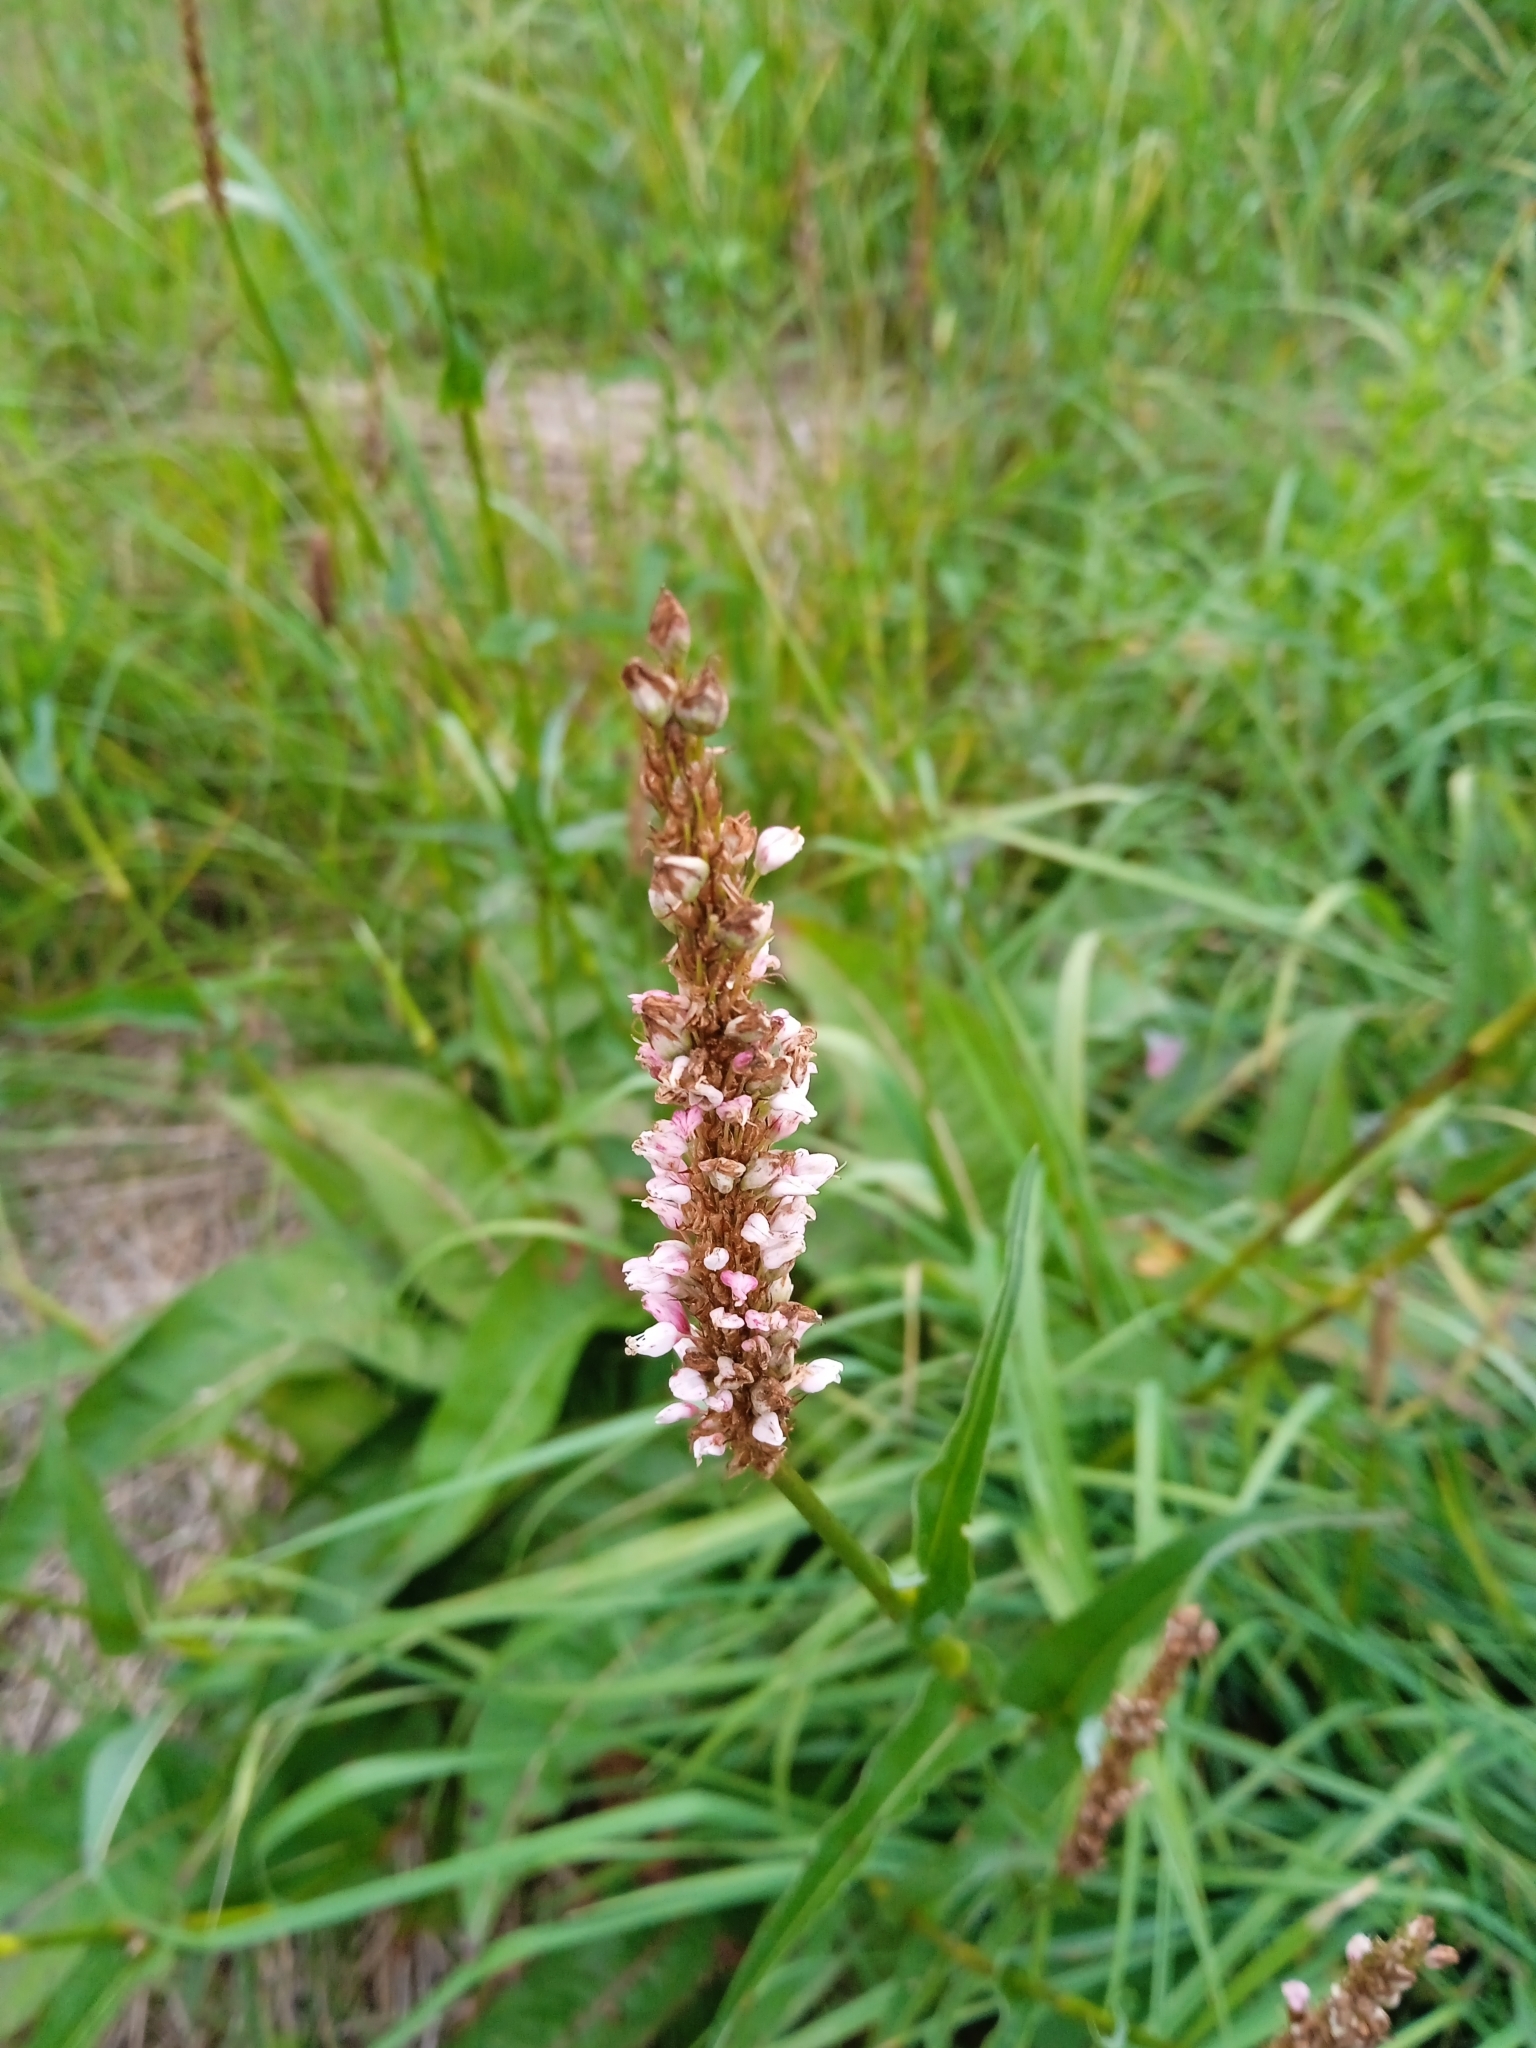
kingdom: Plantae
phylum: Tracheophyta
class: Magnoliopsida
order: Caryophyllales
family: Polygonaceae
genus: Bistorta
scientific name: Bistorta officinalis
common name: Common bistort
